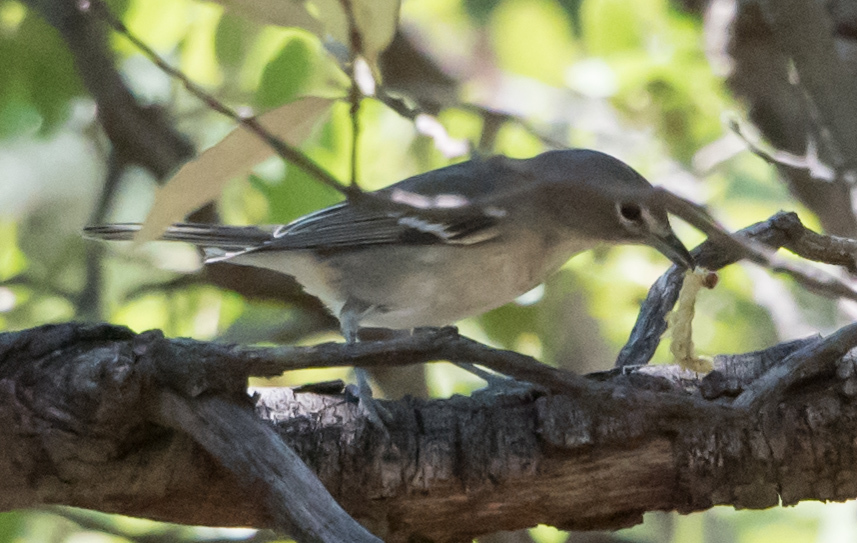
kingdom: Animalia
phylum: Chordata
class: Aves
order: Passeriformes
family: Vireonidae
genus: Vireo
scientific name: Vireo plumbeus
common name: Plumbeous vireo
